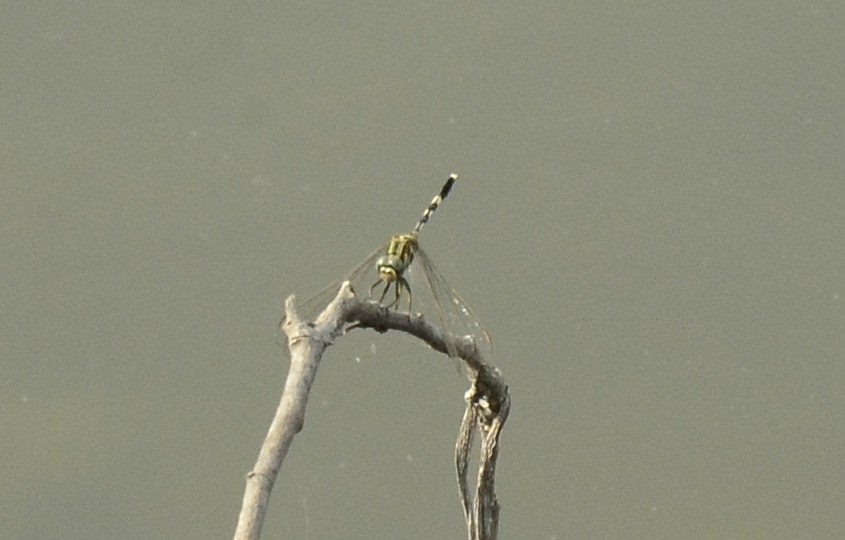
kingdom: Animalia
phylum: Arthropoda
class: Insecta
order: Odonata
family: Libellulidae
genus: Orthetrum
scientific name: Orthetrum sabina
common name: Slender skimmer
